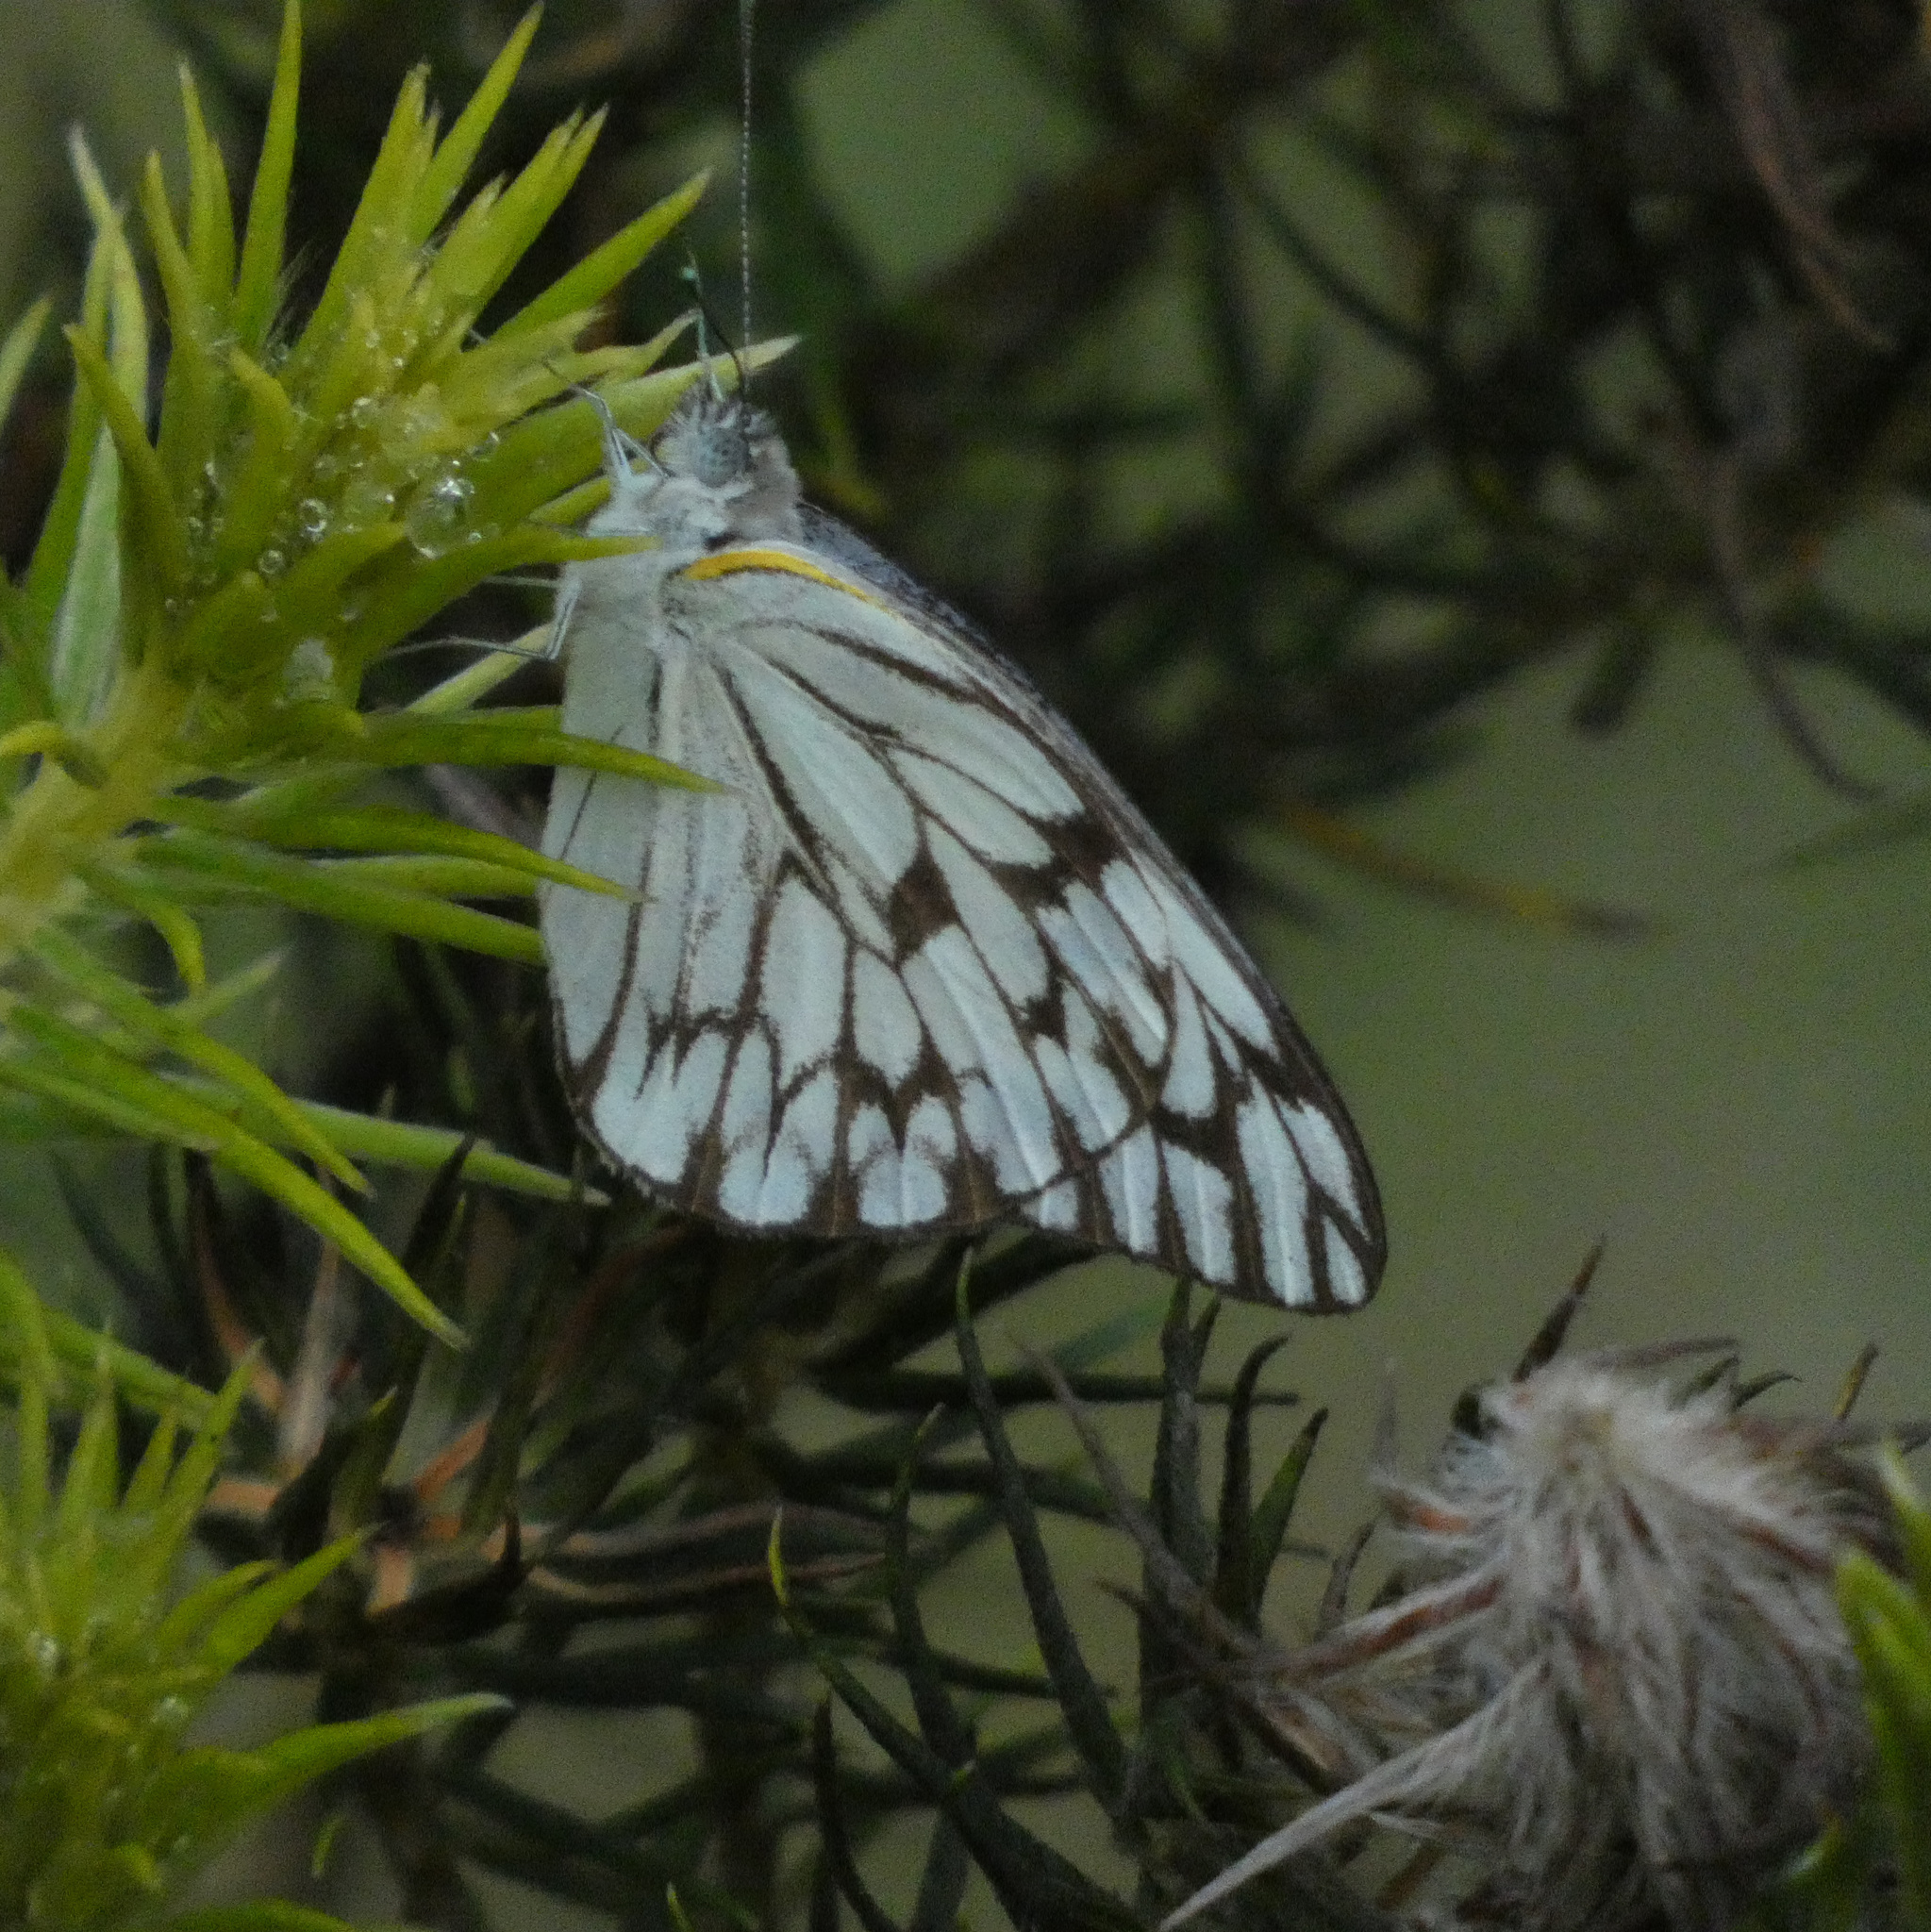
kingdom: Animalia
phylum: Arthropoda
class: Insecta
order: Lepidoptera
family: Pieridae
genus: Belenois
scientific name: Belenois gidica
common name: Pointed caper white
